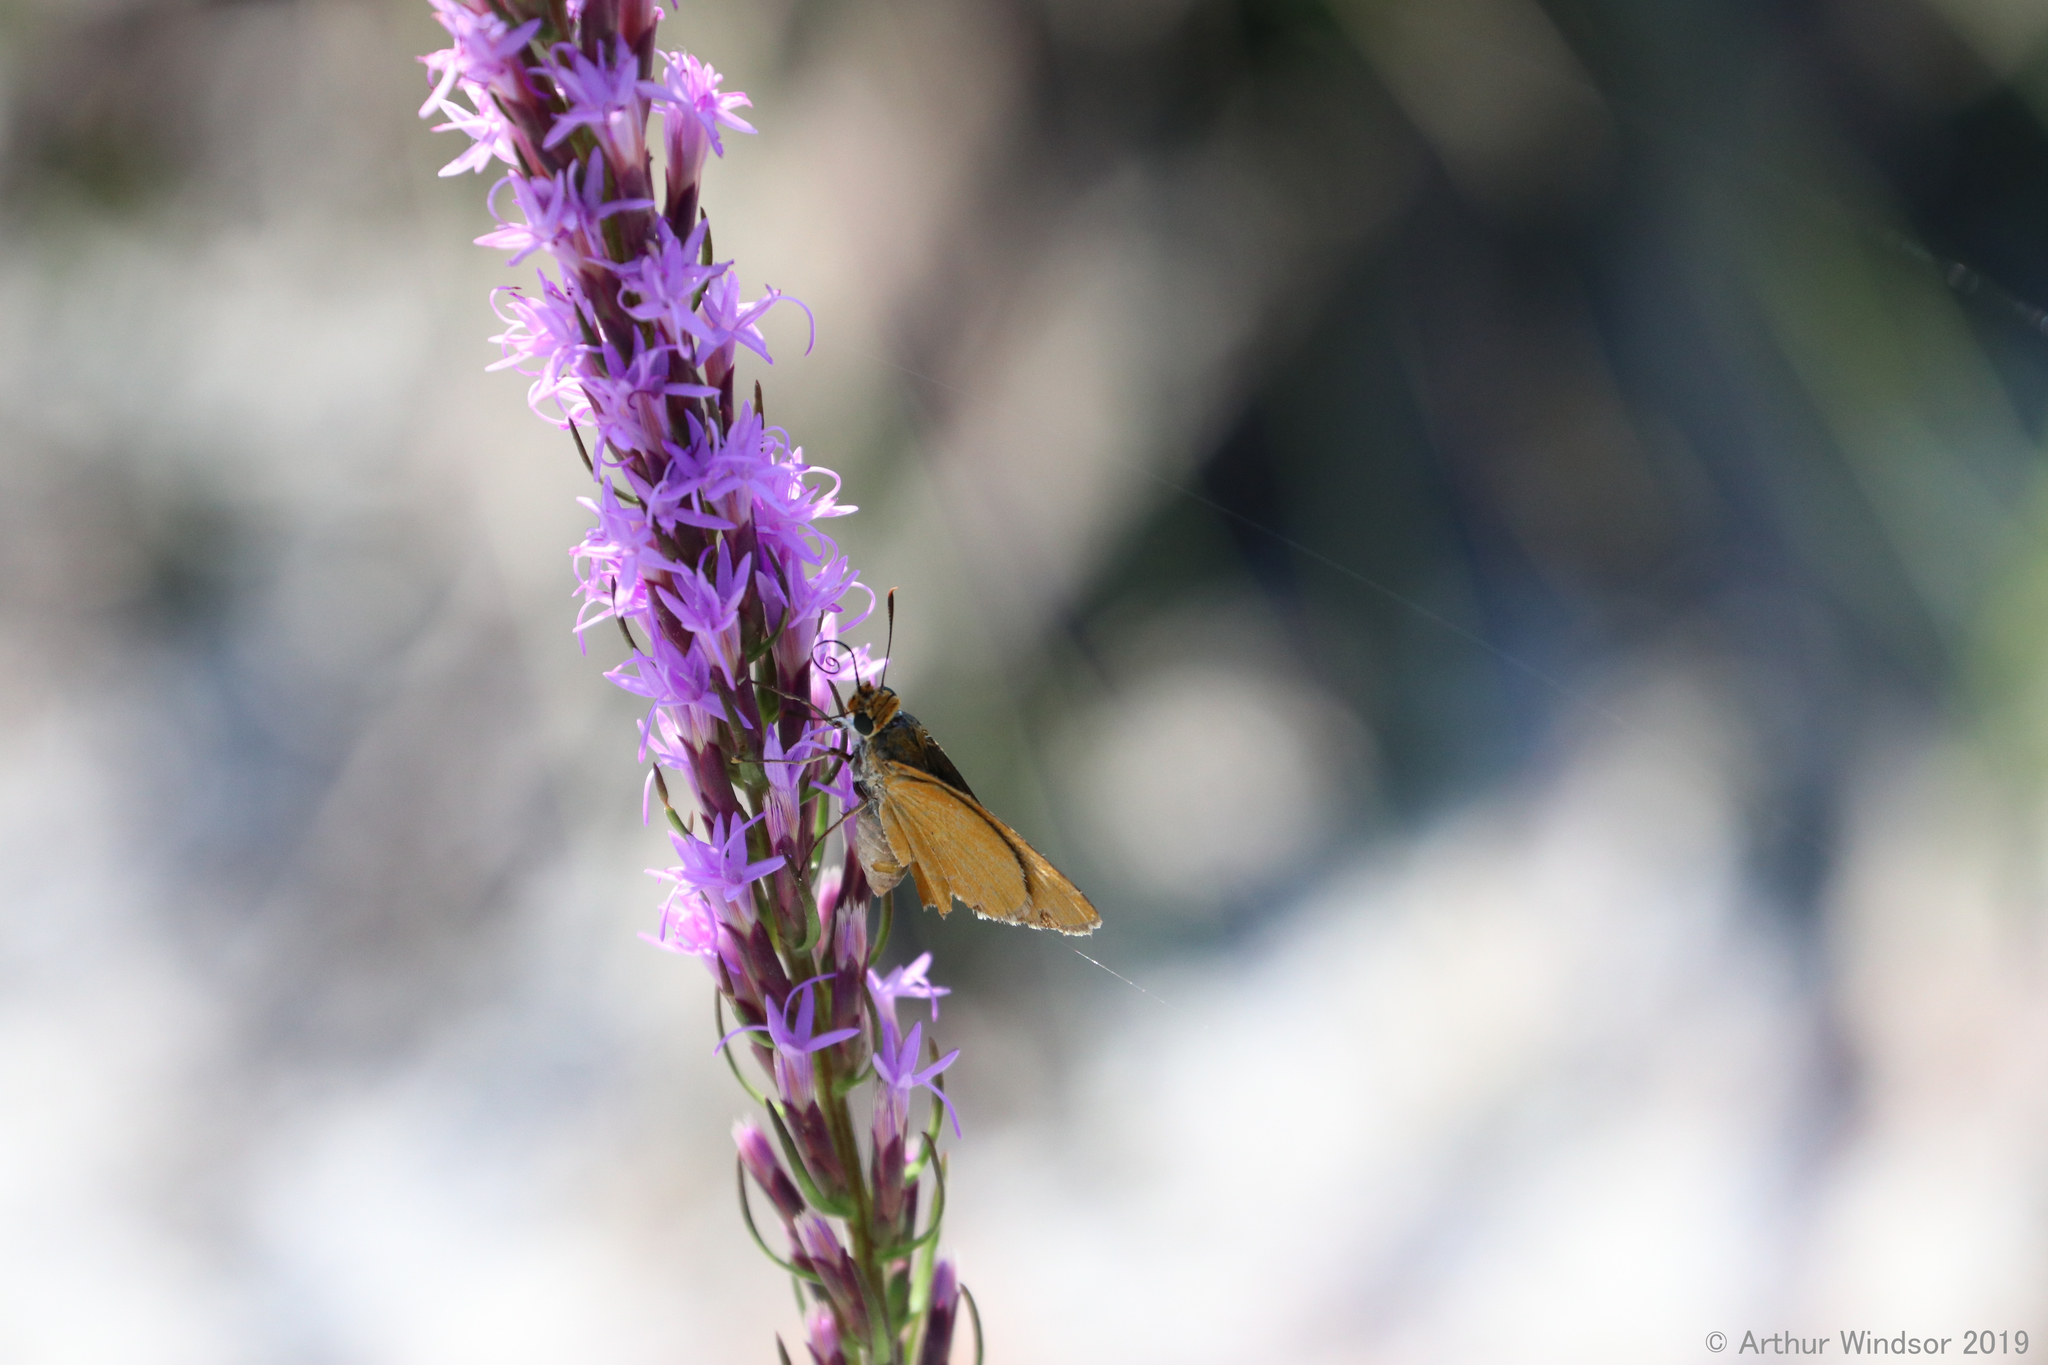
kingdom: Animalia
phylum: Arthropoda
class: Insecta
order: Lepidoptera
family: Hesperiidae
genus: Euphyes
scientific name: Euphyes arpa
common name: Palmetto skipper
